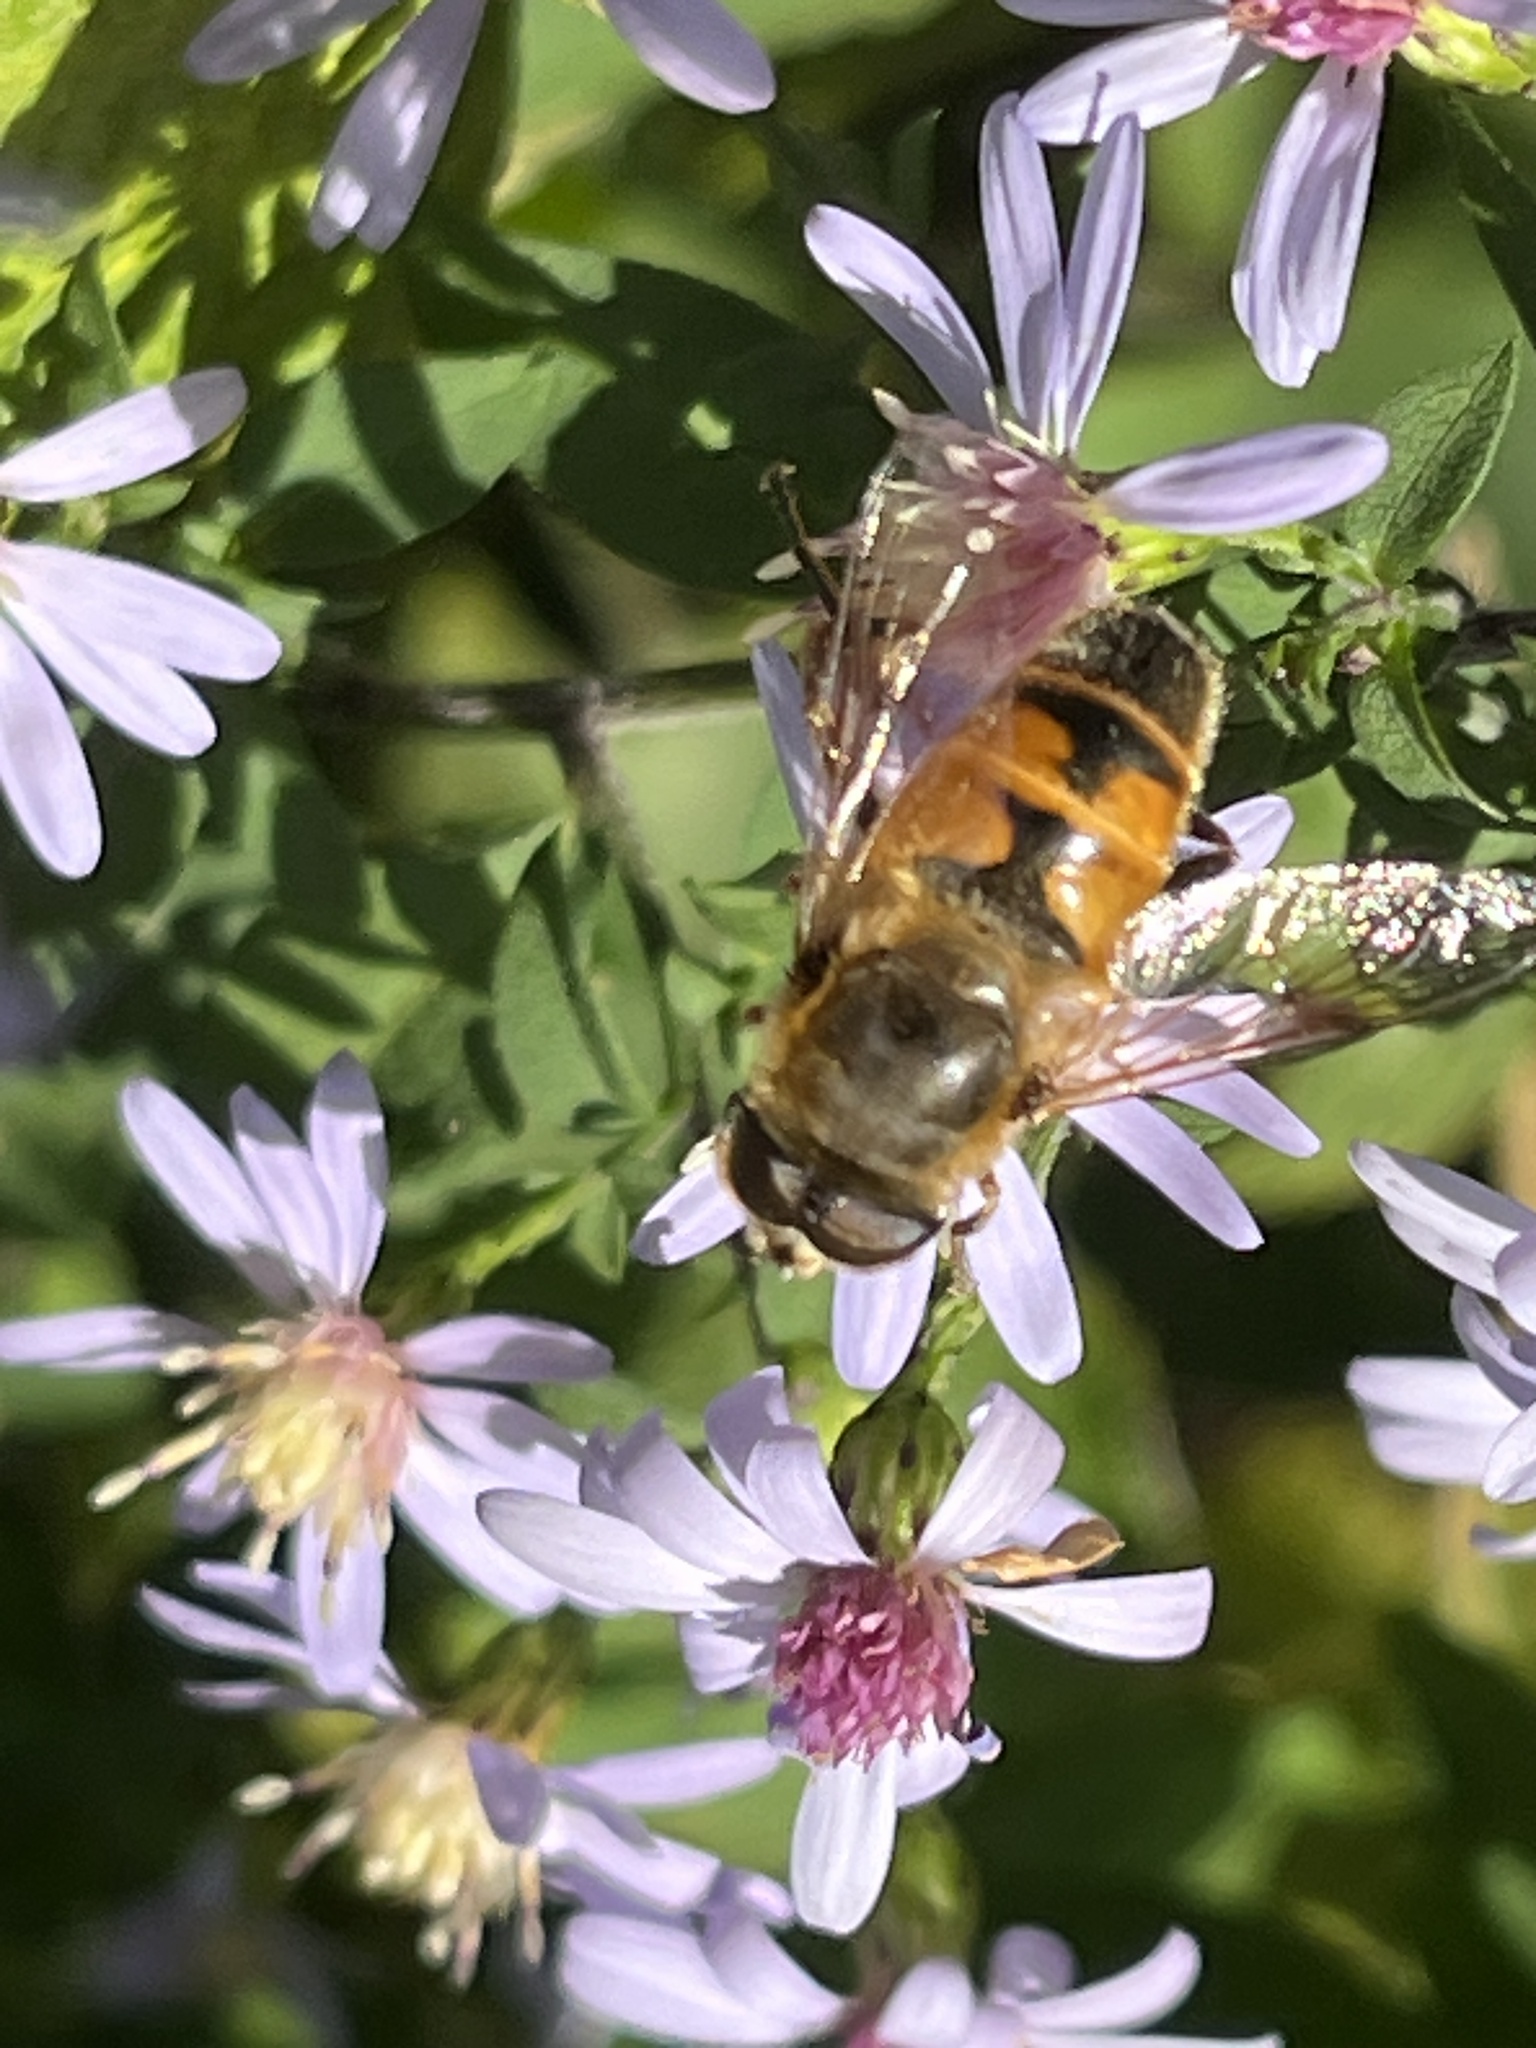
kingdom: Animalia
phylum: Arthropoda
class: Insecta
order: Diptera
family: Syrphidae
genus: Eristalis
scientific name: Eristalis tenax
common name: Drone fly
